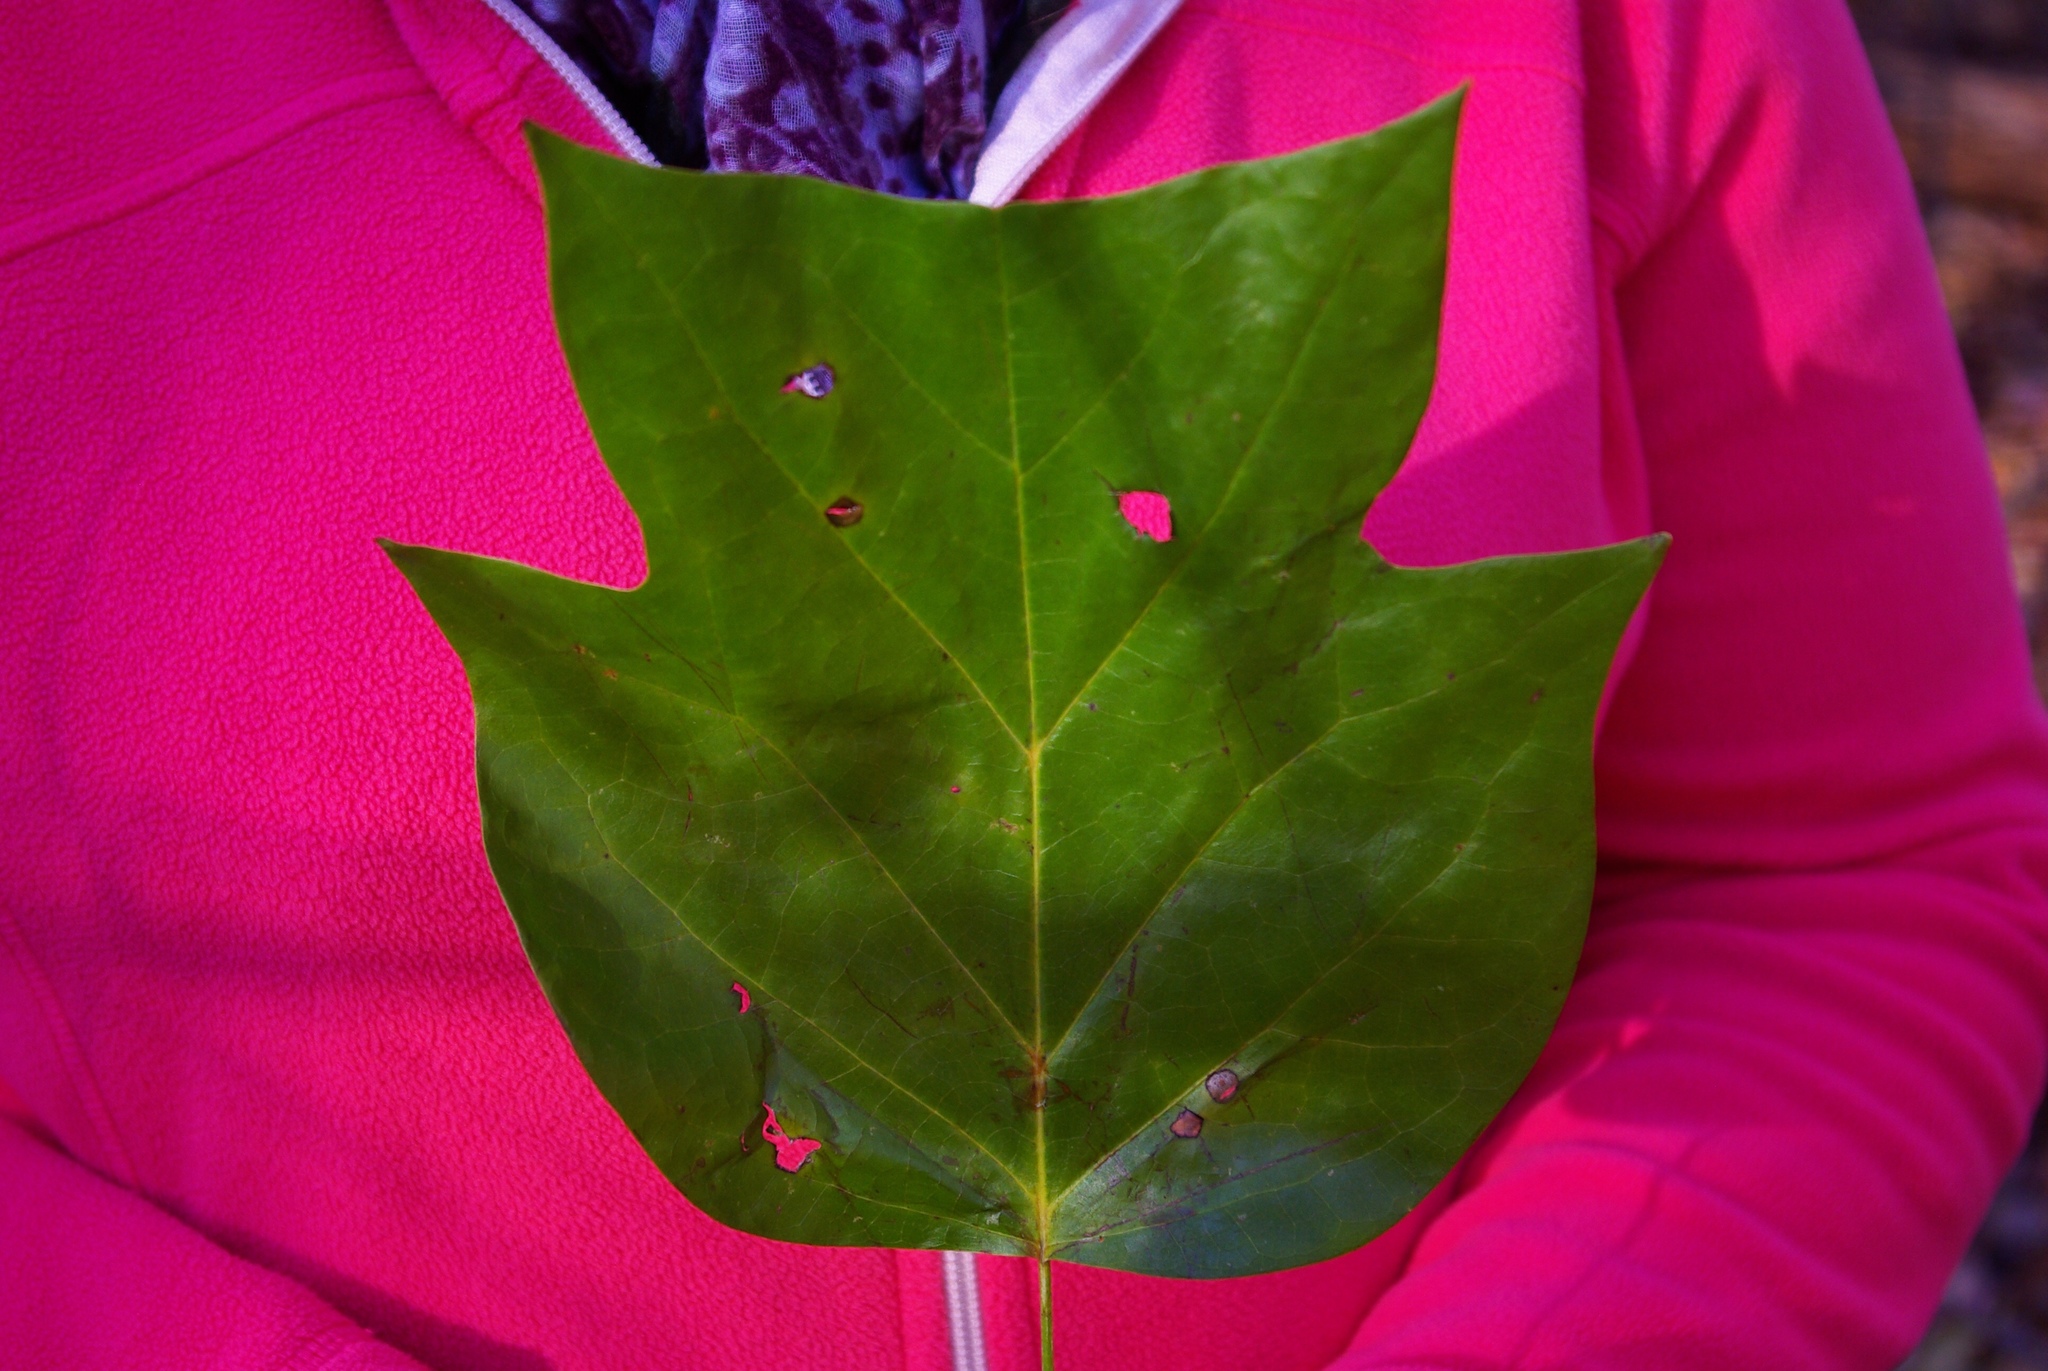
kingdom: Plantae
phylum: Tracheophyta
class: Magnoliopsida
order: Magnoliales
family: Magnoliaceae
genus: Liriodendron
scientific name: Liriodendron tulipifera
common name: Tulip tree
